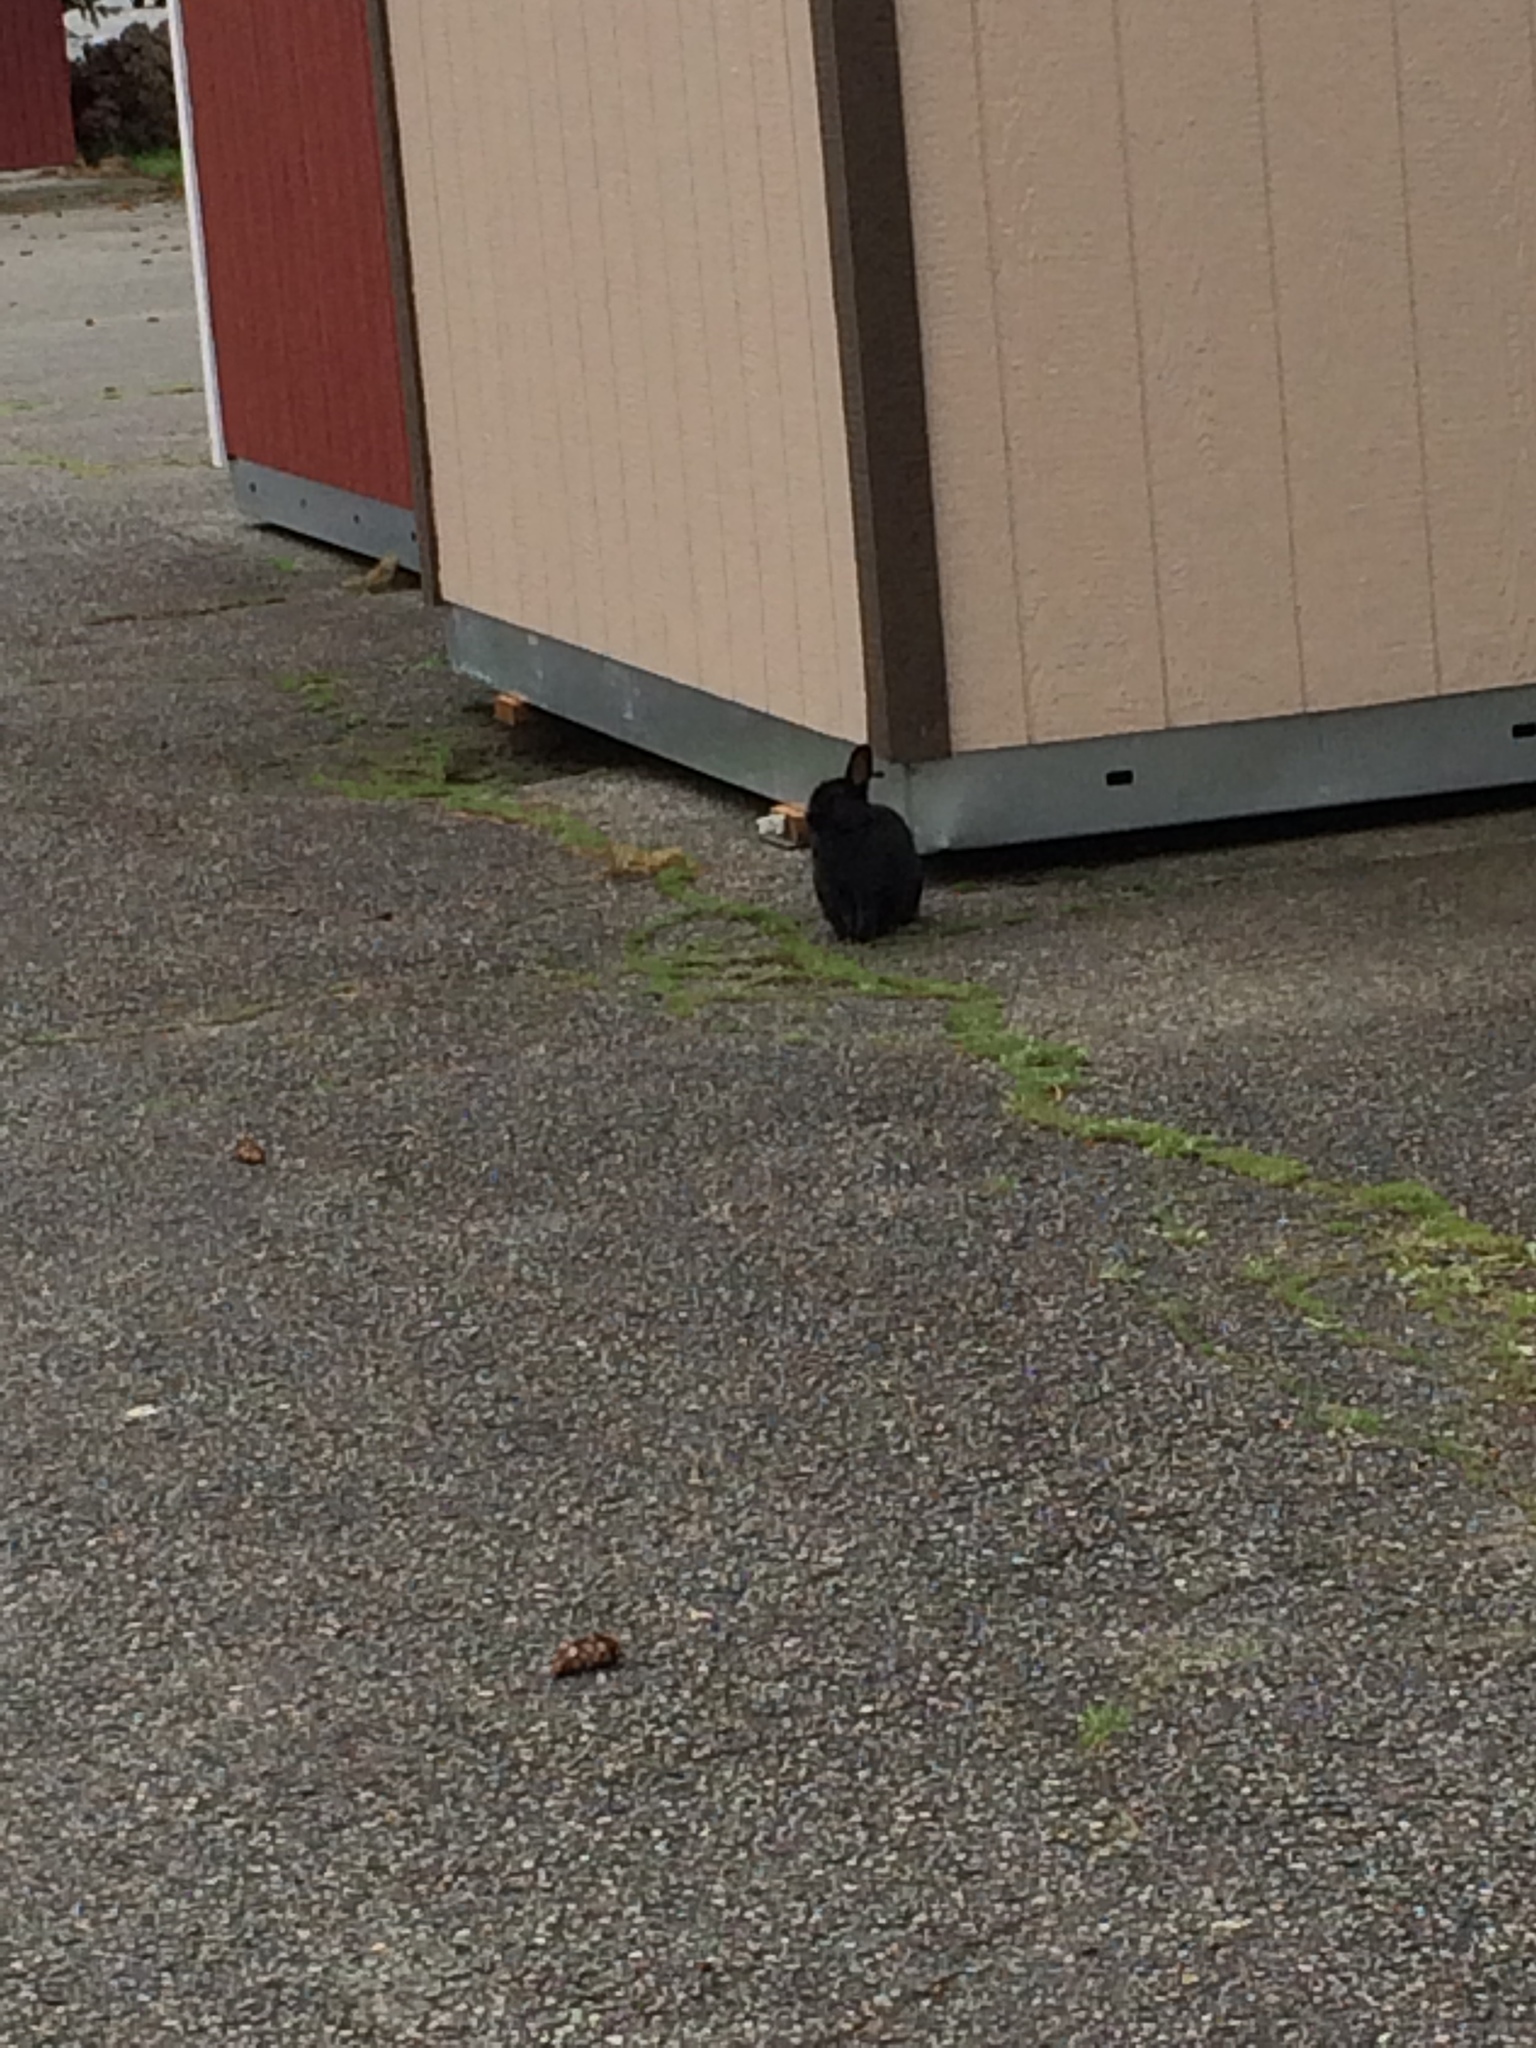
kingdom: Animalia
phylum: Chordata
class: Mammalia
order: Lagomorpha
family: Leporidae
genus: Oryctolagus
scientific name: Oryctolagus cuniculus
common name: European rabbit
